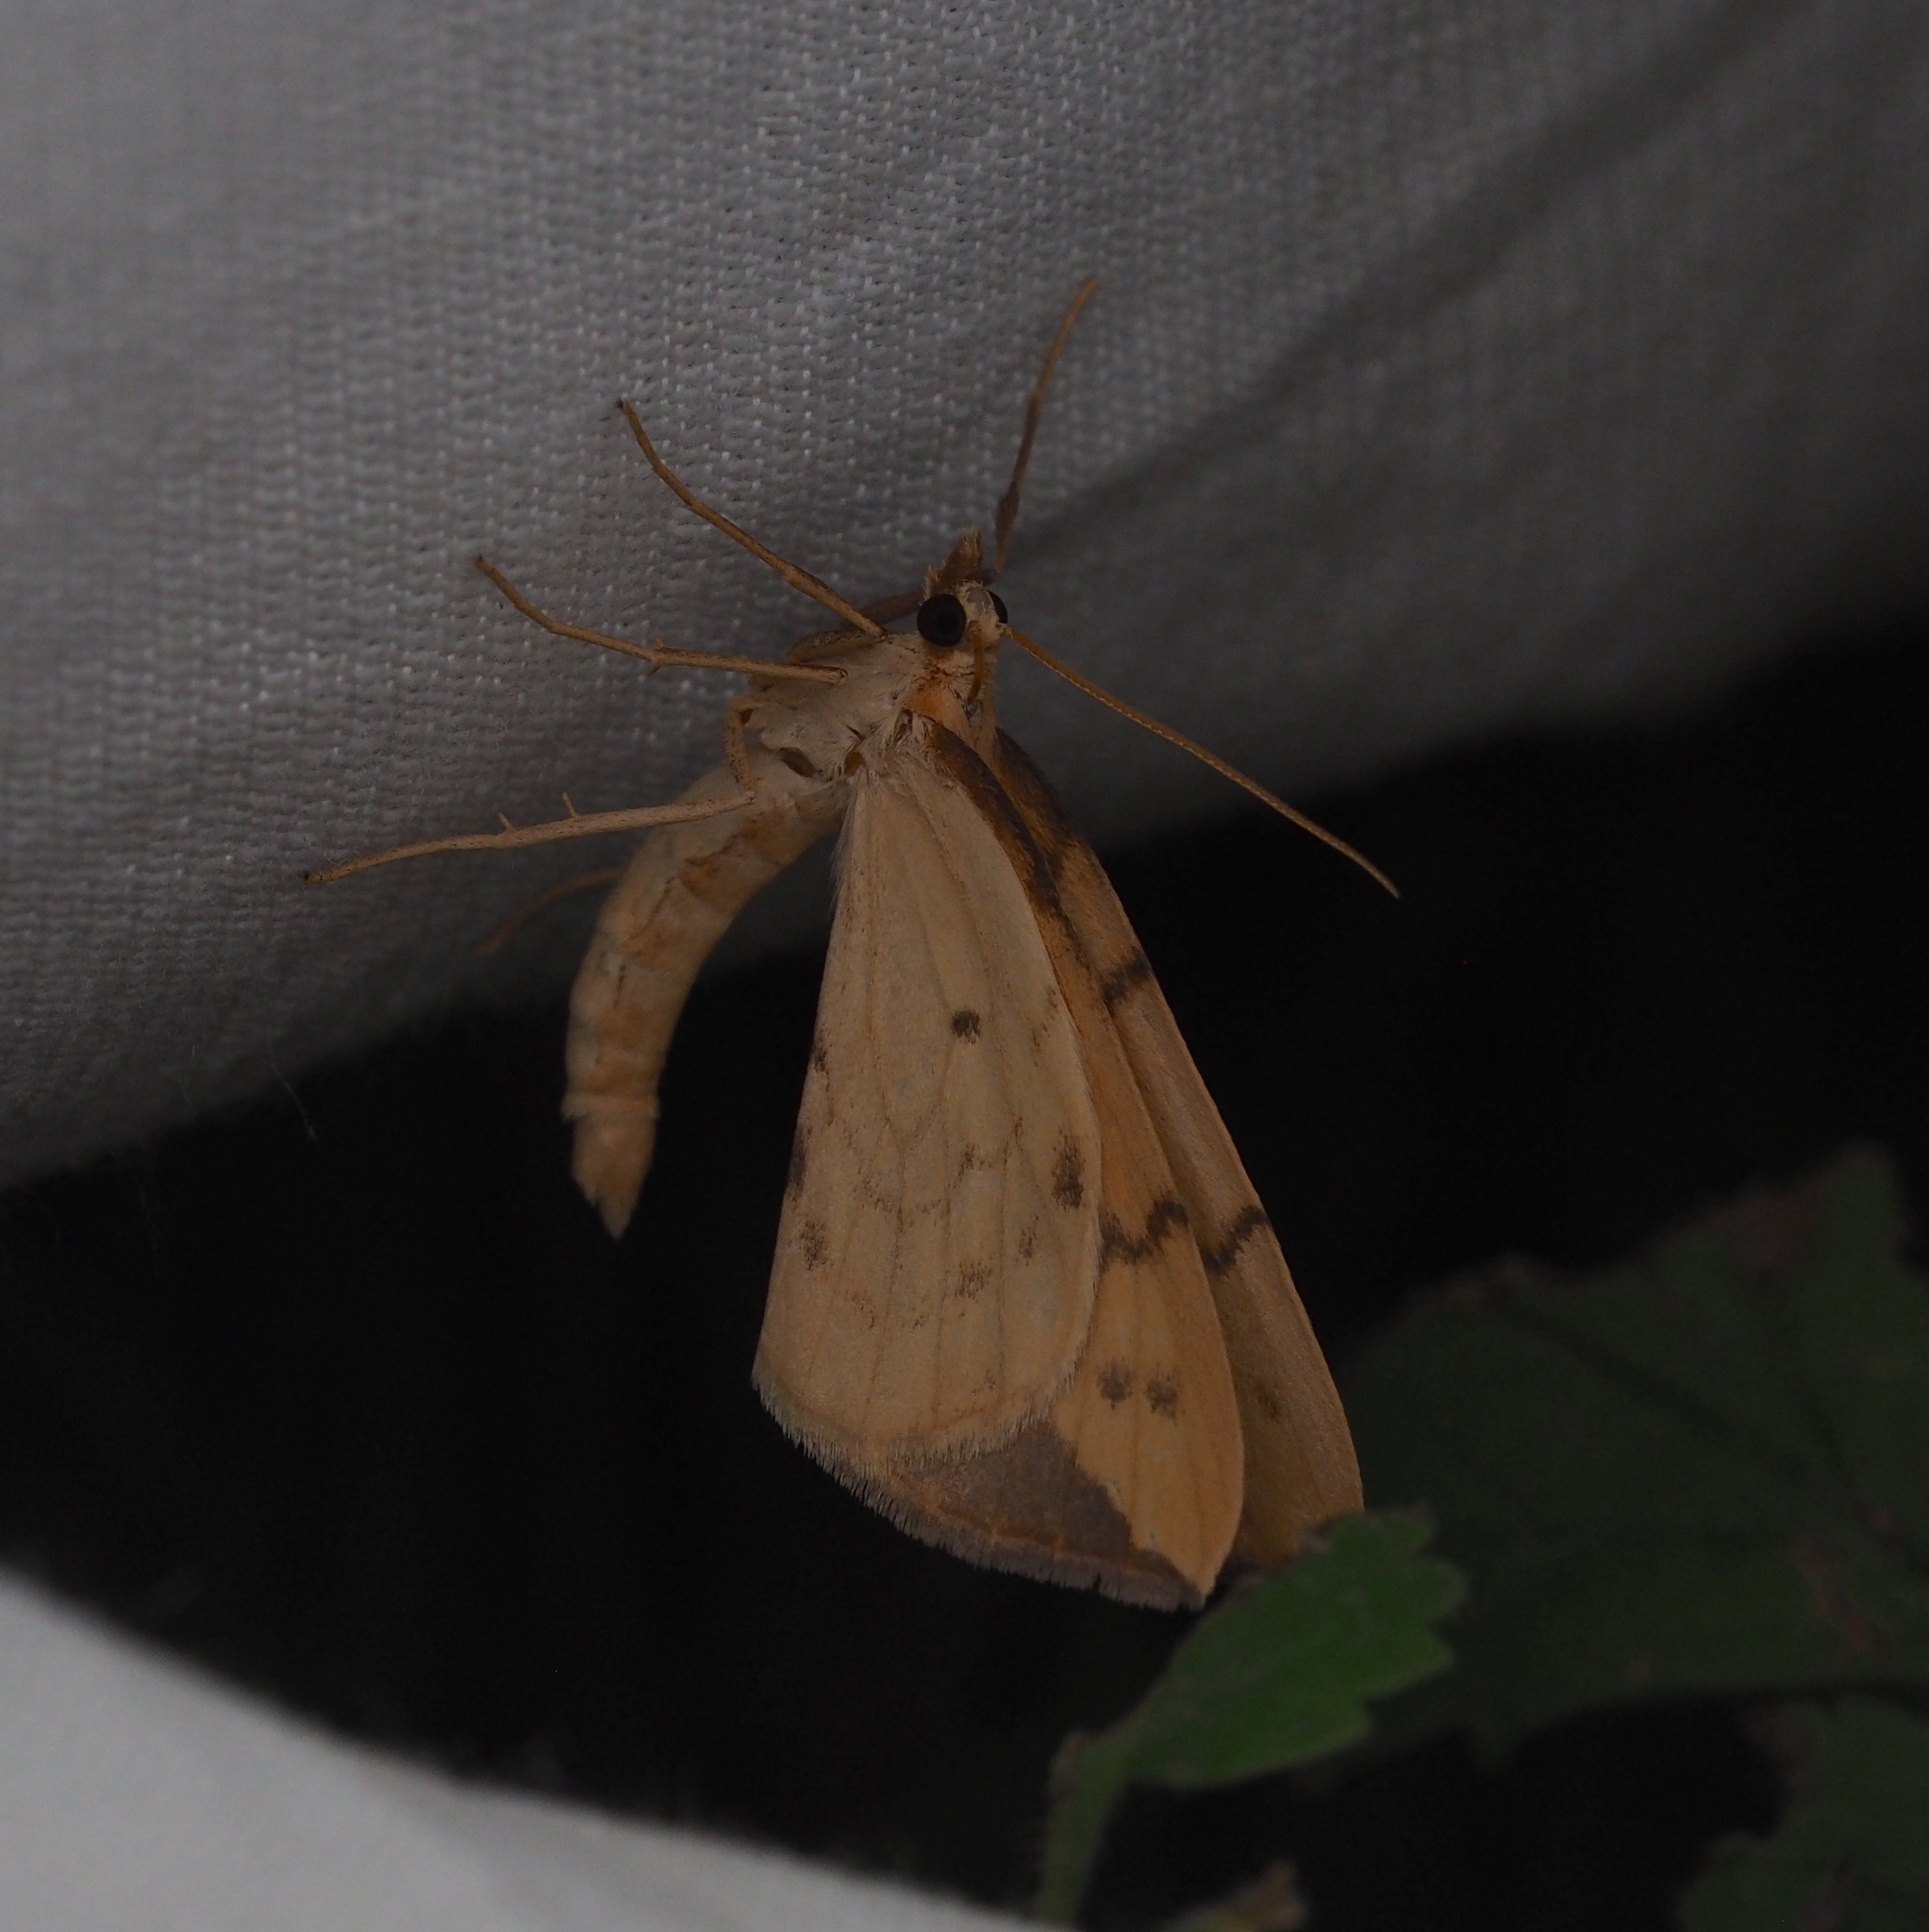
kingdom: Animalia
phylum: Arthropoda
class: Insecta
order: Lepidoptera
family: Geometridae
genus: Eulithis
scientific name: Eulithis pyraliata
